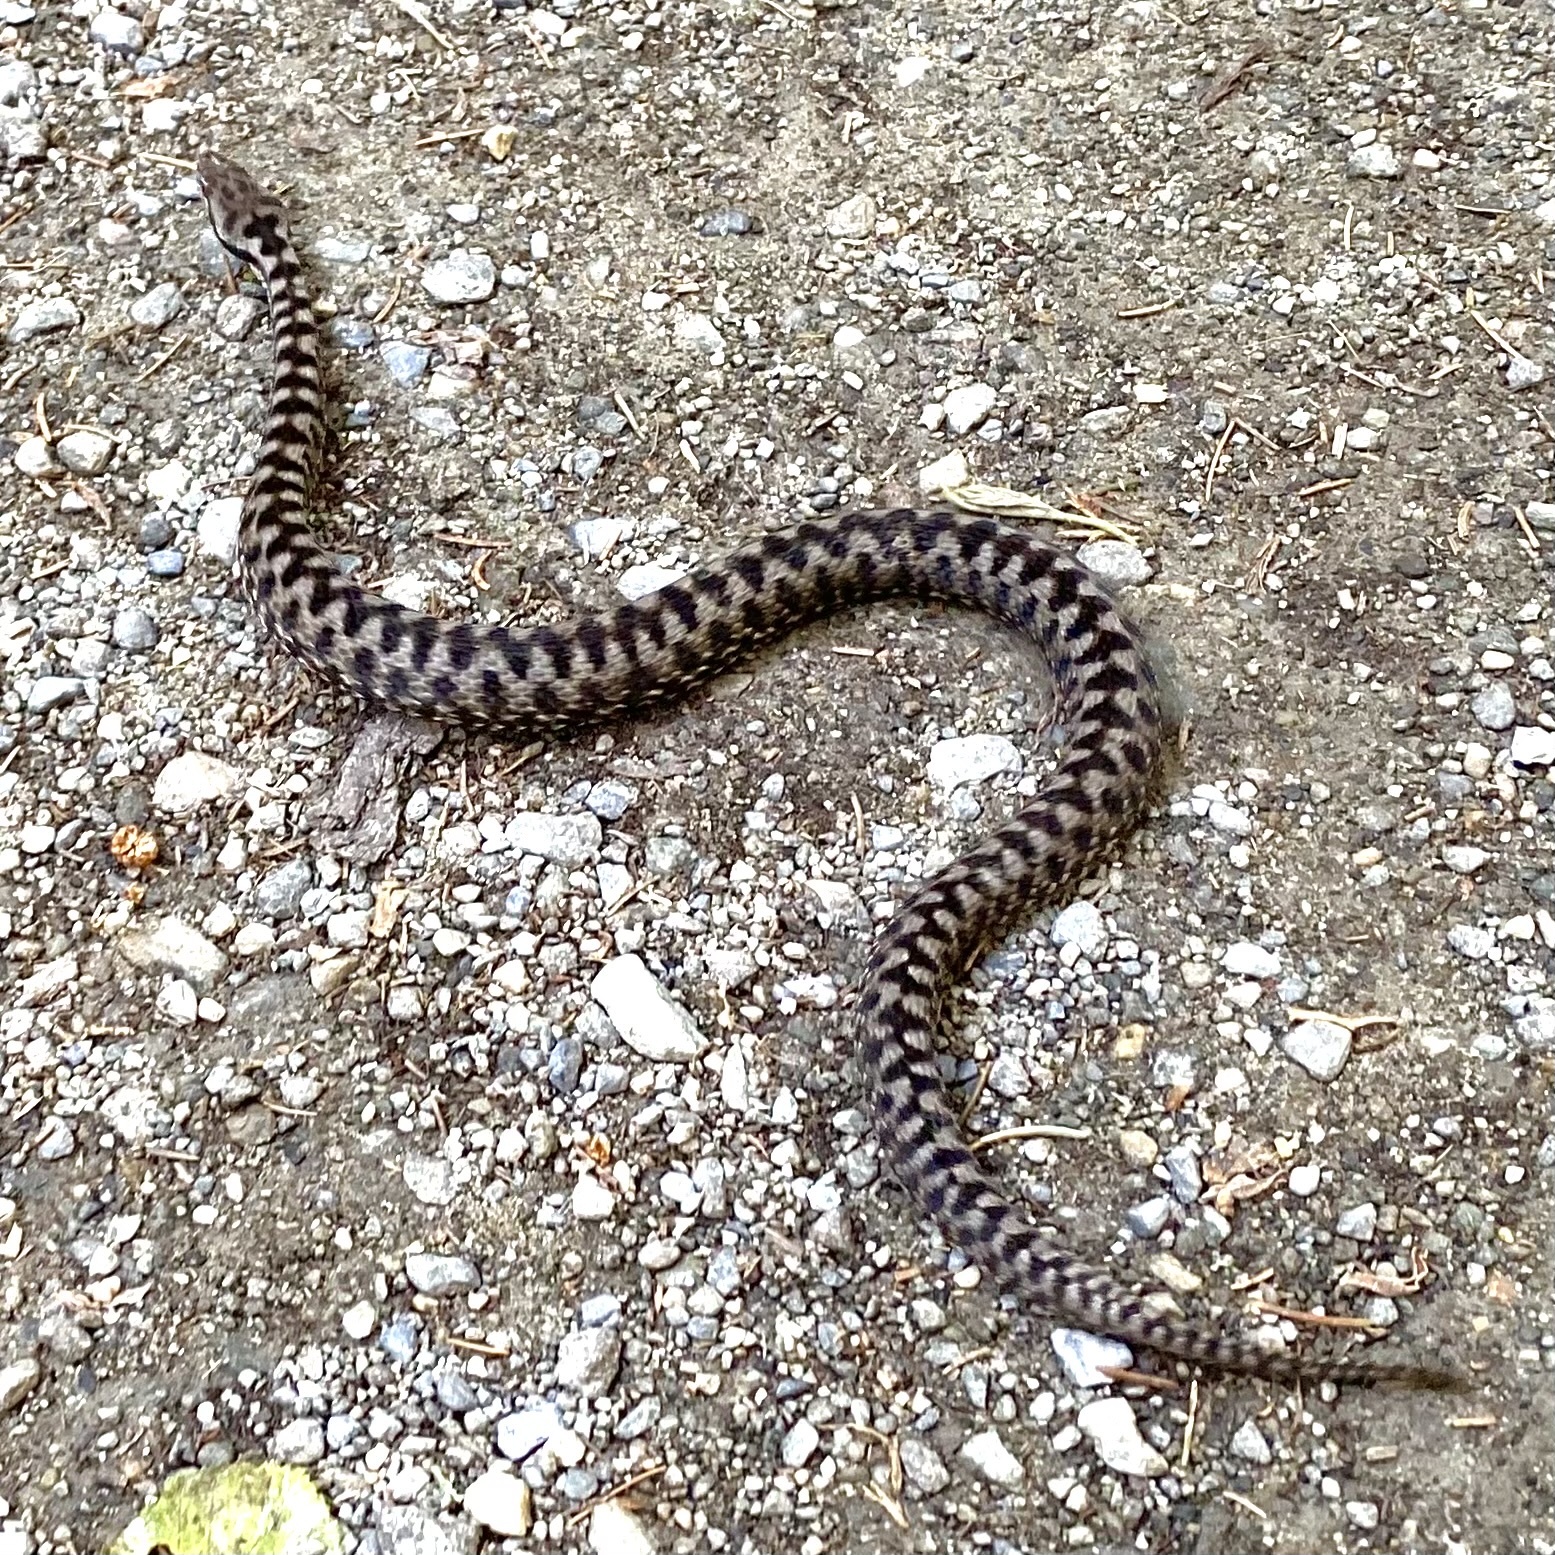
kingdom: Animalia
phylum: Chordata
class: Squamata
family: Viperidae
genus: Vipera
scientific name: Vipera aspis
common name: Asp viper
